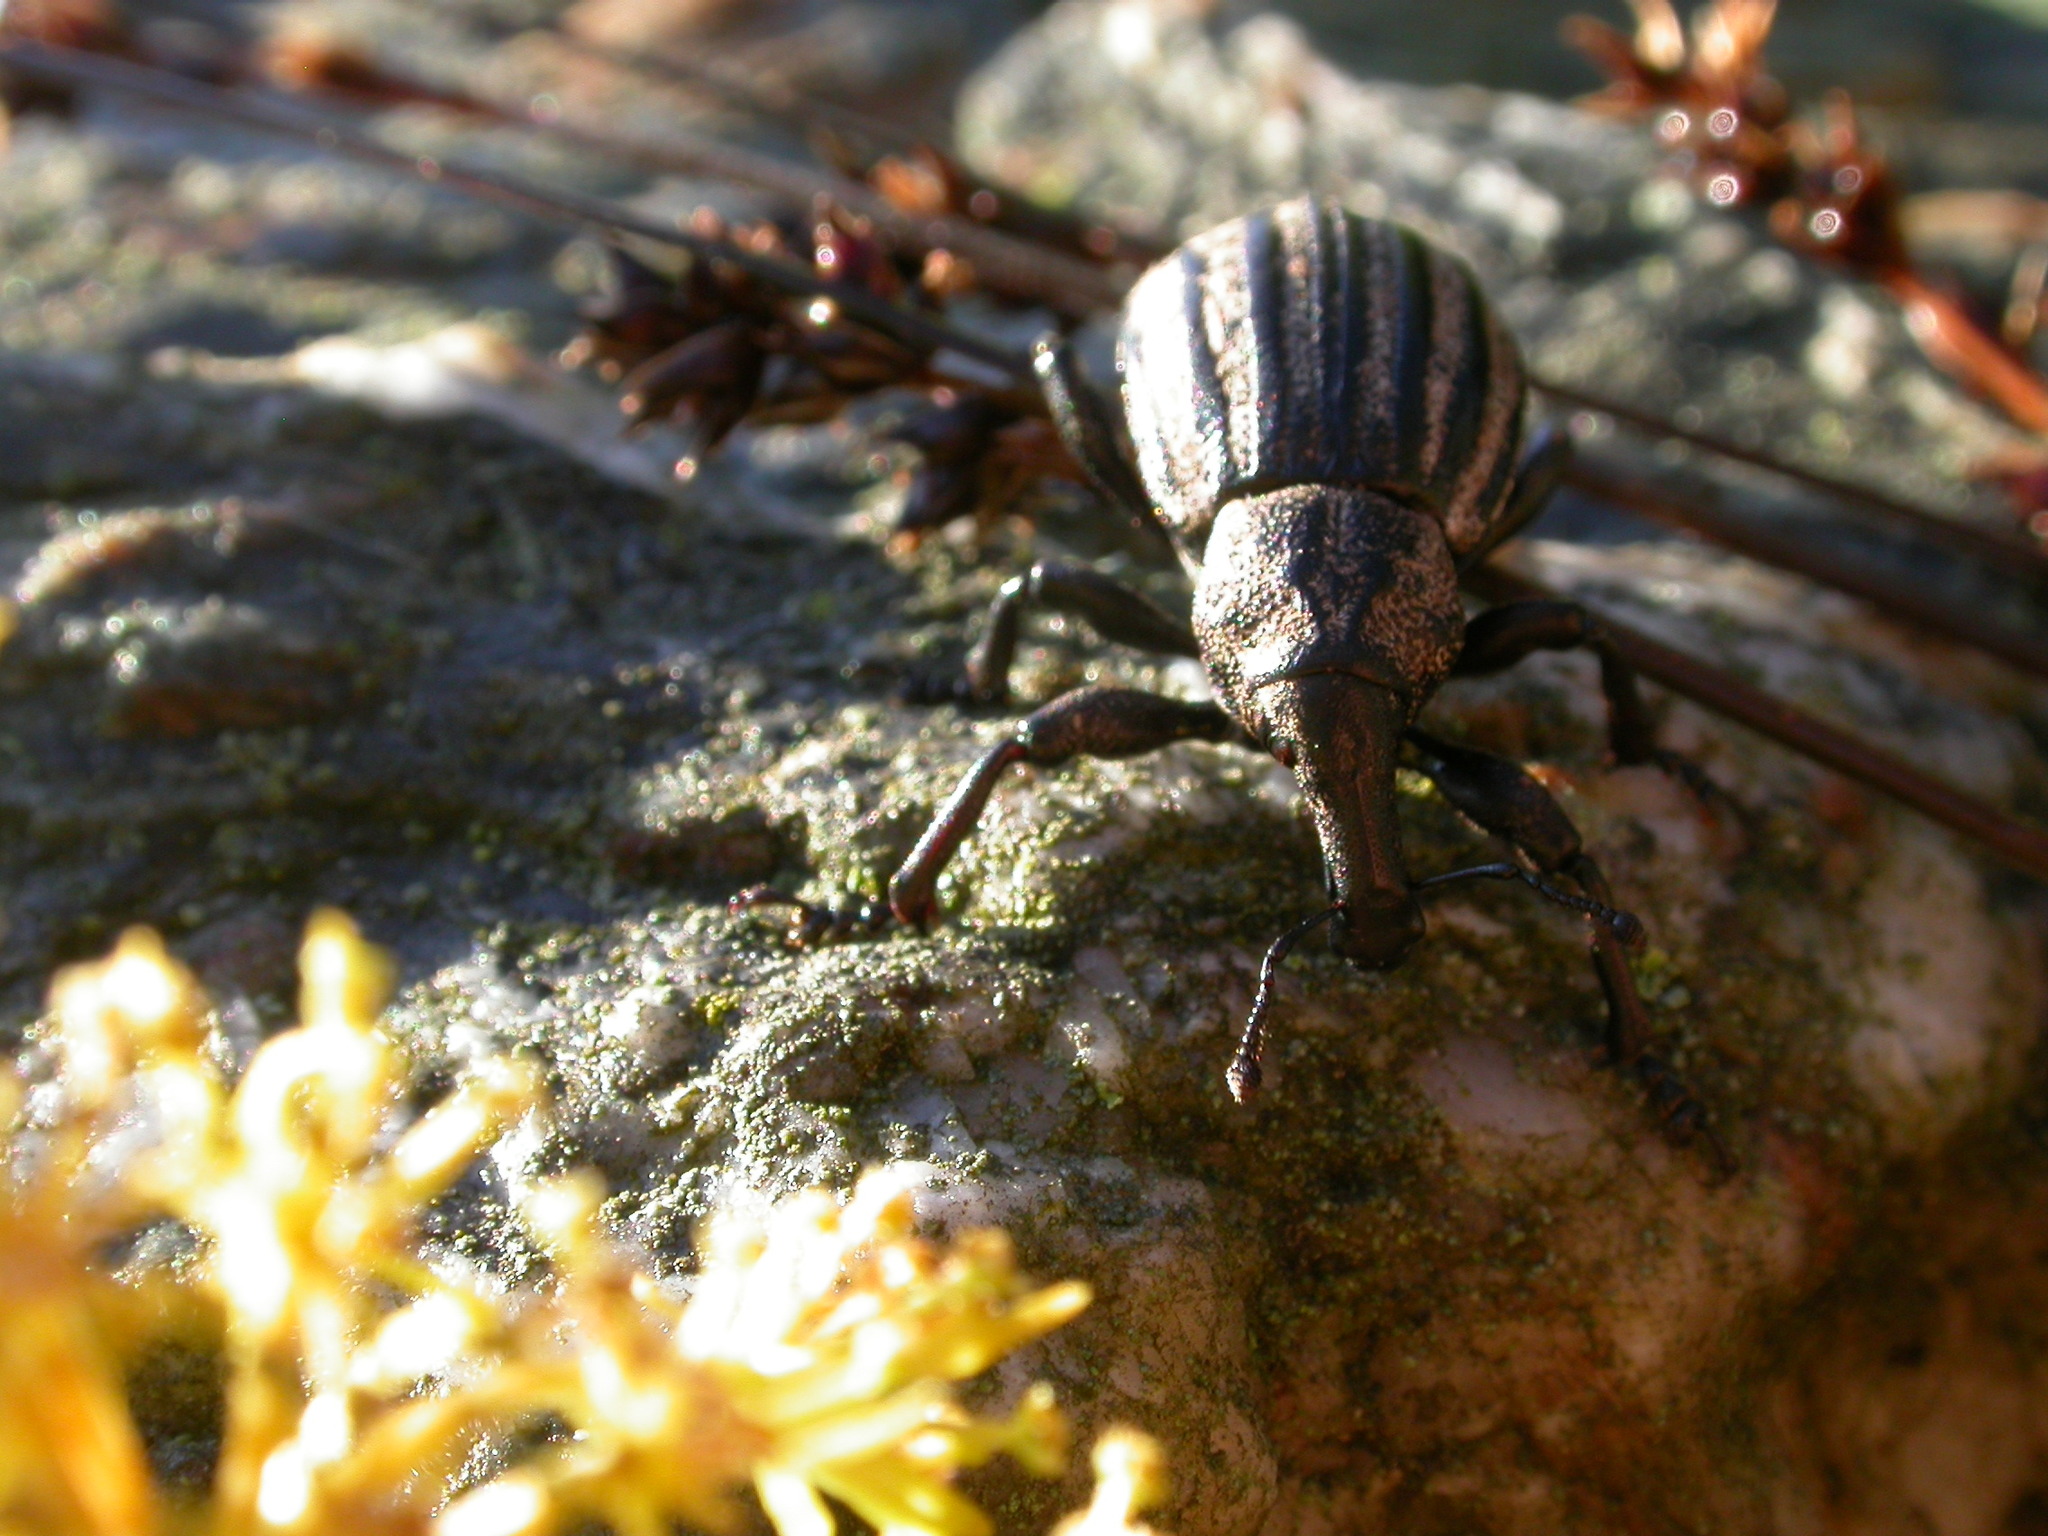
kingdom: Animalia
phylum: Arthropoda
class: Insecta
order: Coleoptera
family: Curculionidae
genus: Lyperobius
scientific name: Lyperobius fallax
